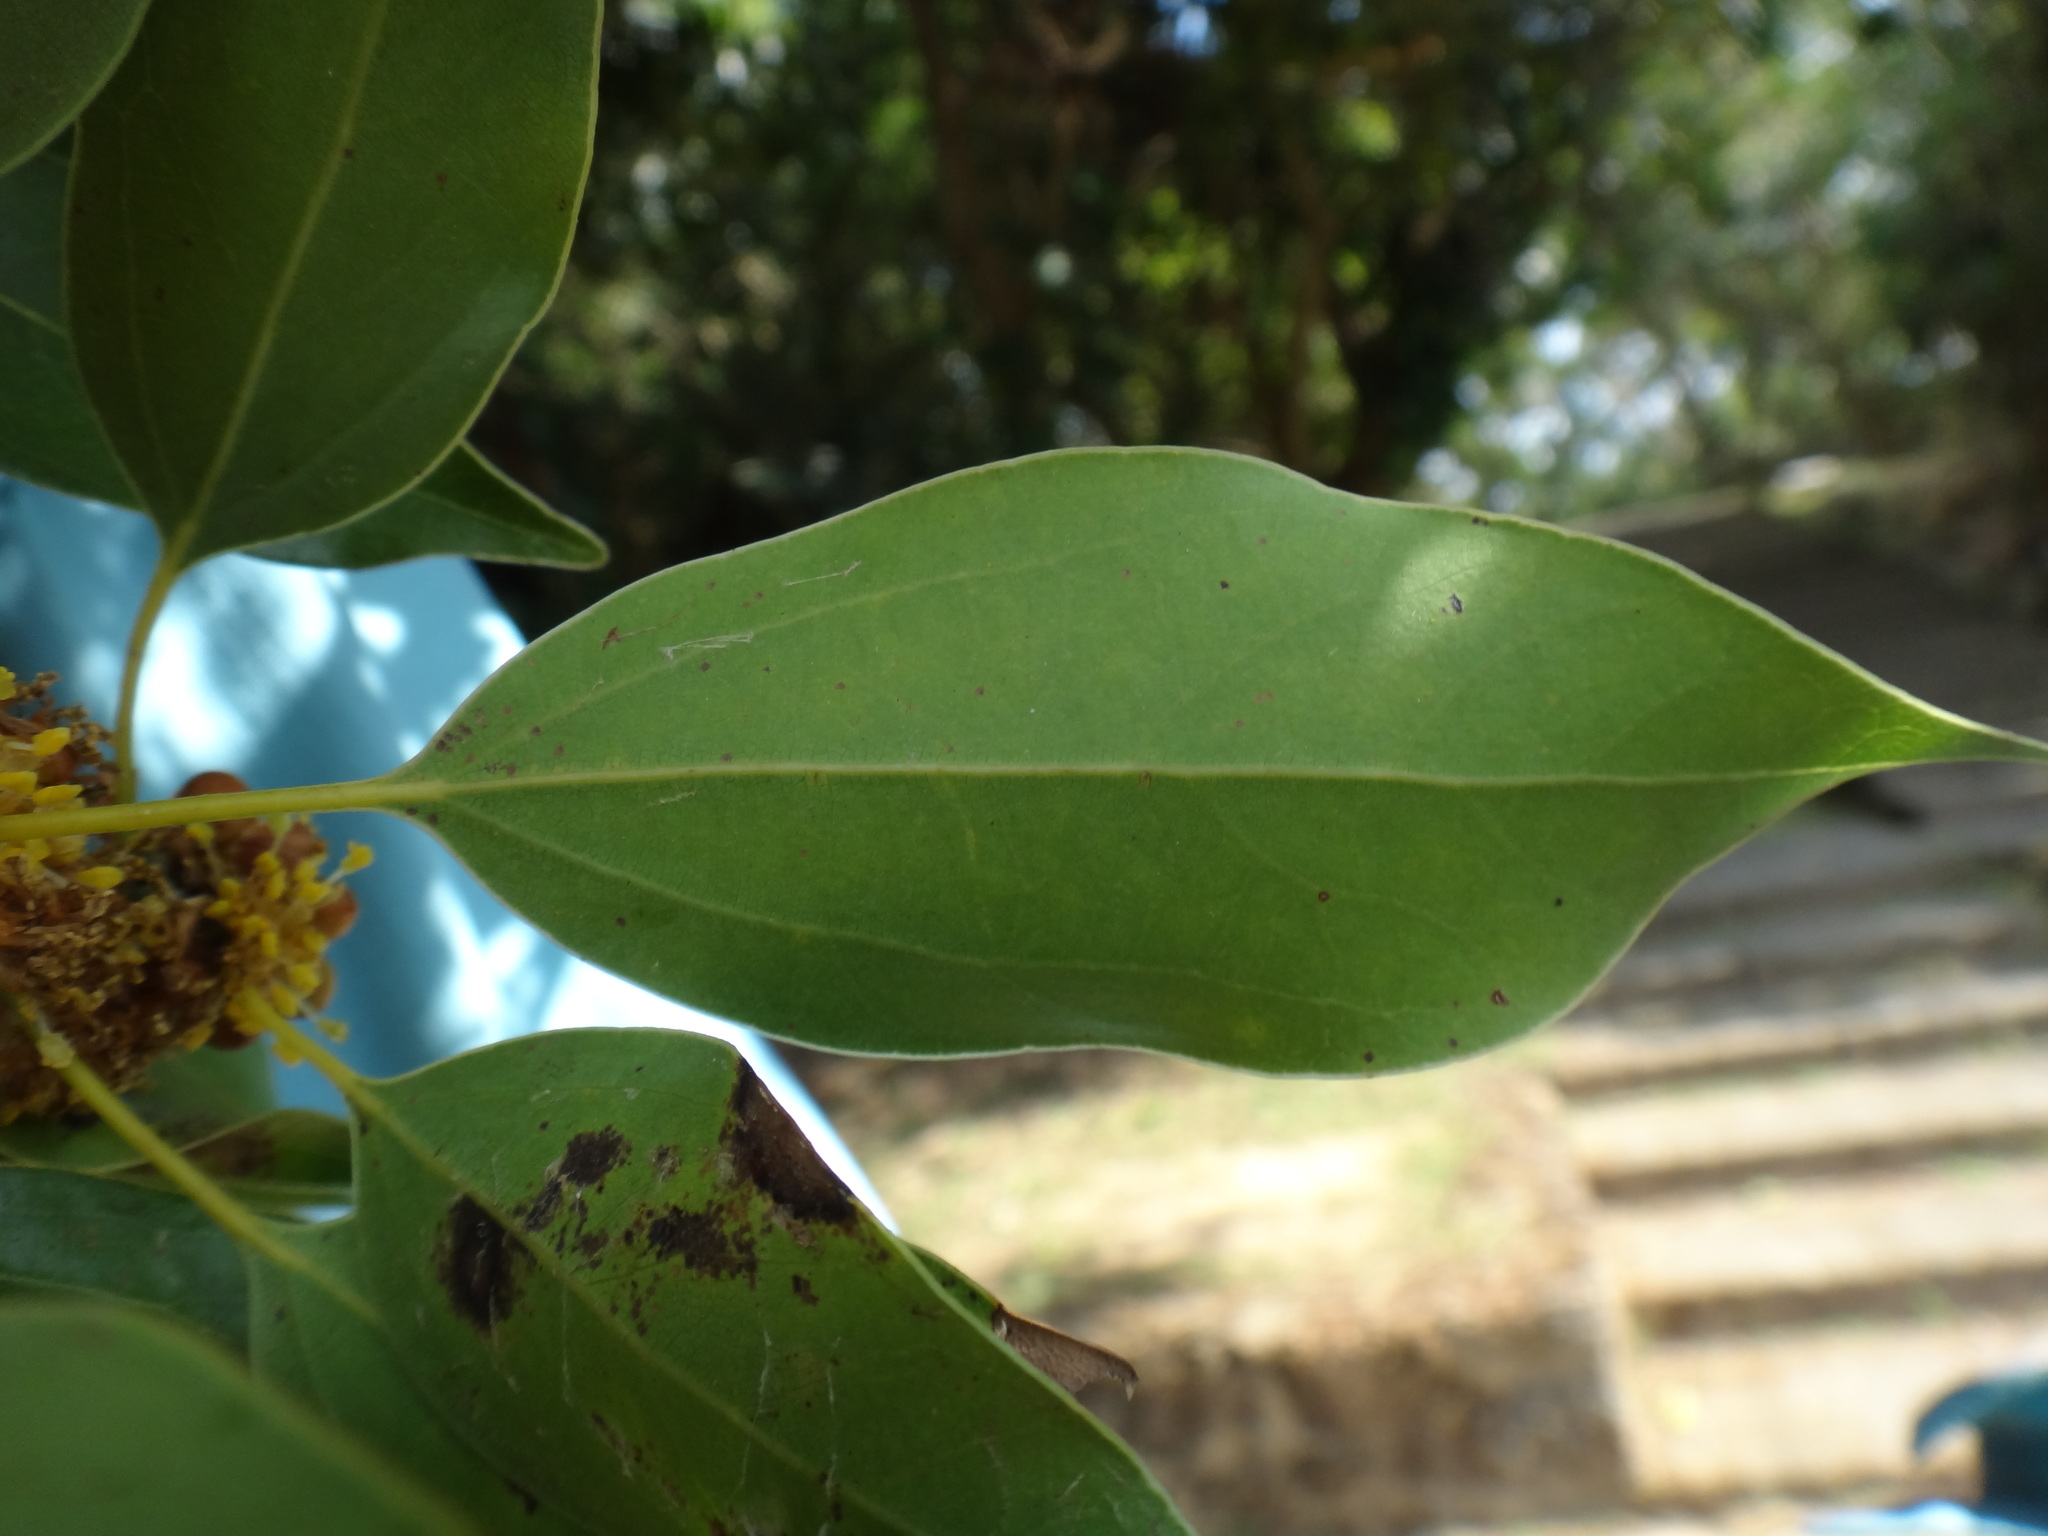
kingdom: Plantae
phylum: Tracheophyta
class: Magnoliopsida
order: Laurales
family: Lauraceae
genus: Neolitsea
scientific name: Neolitsea parvigemma
